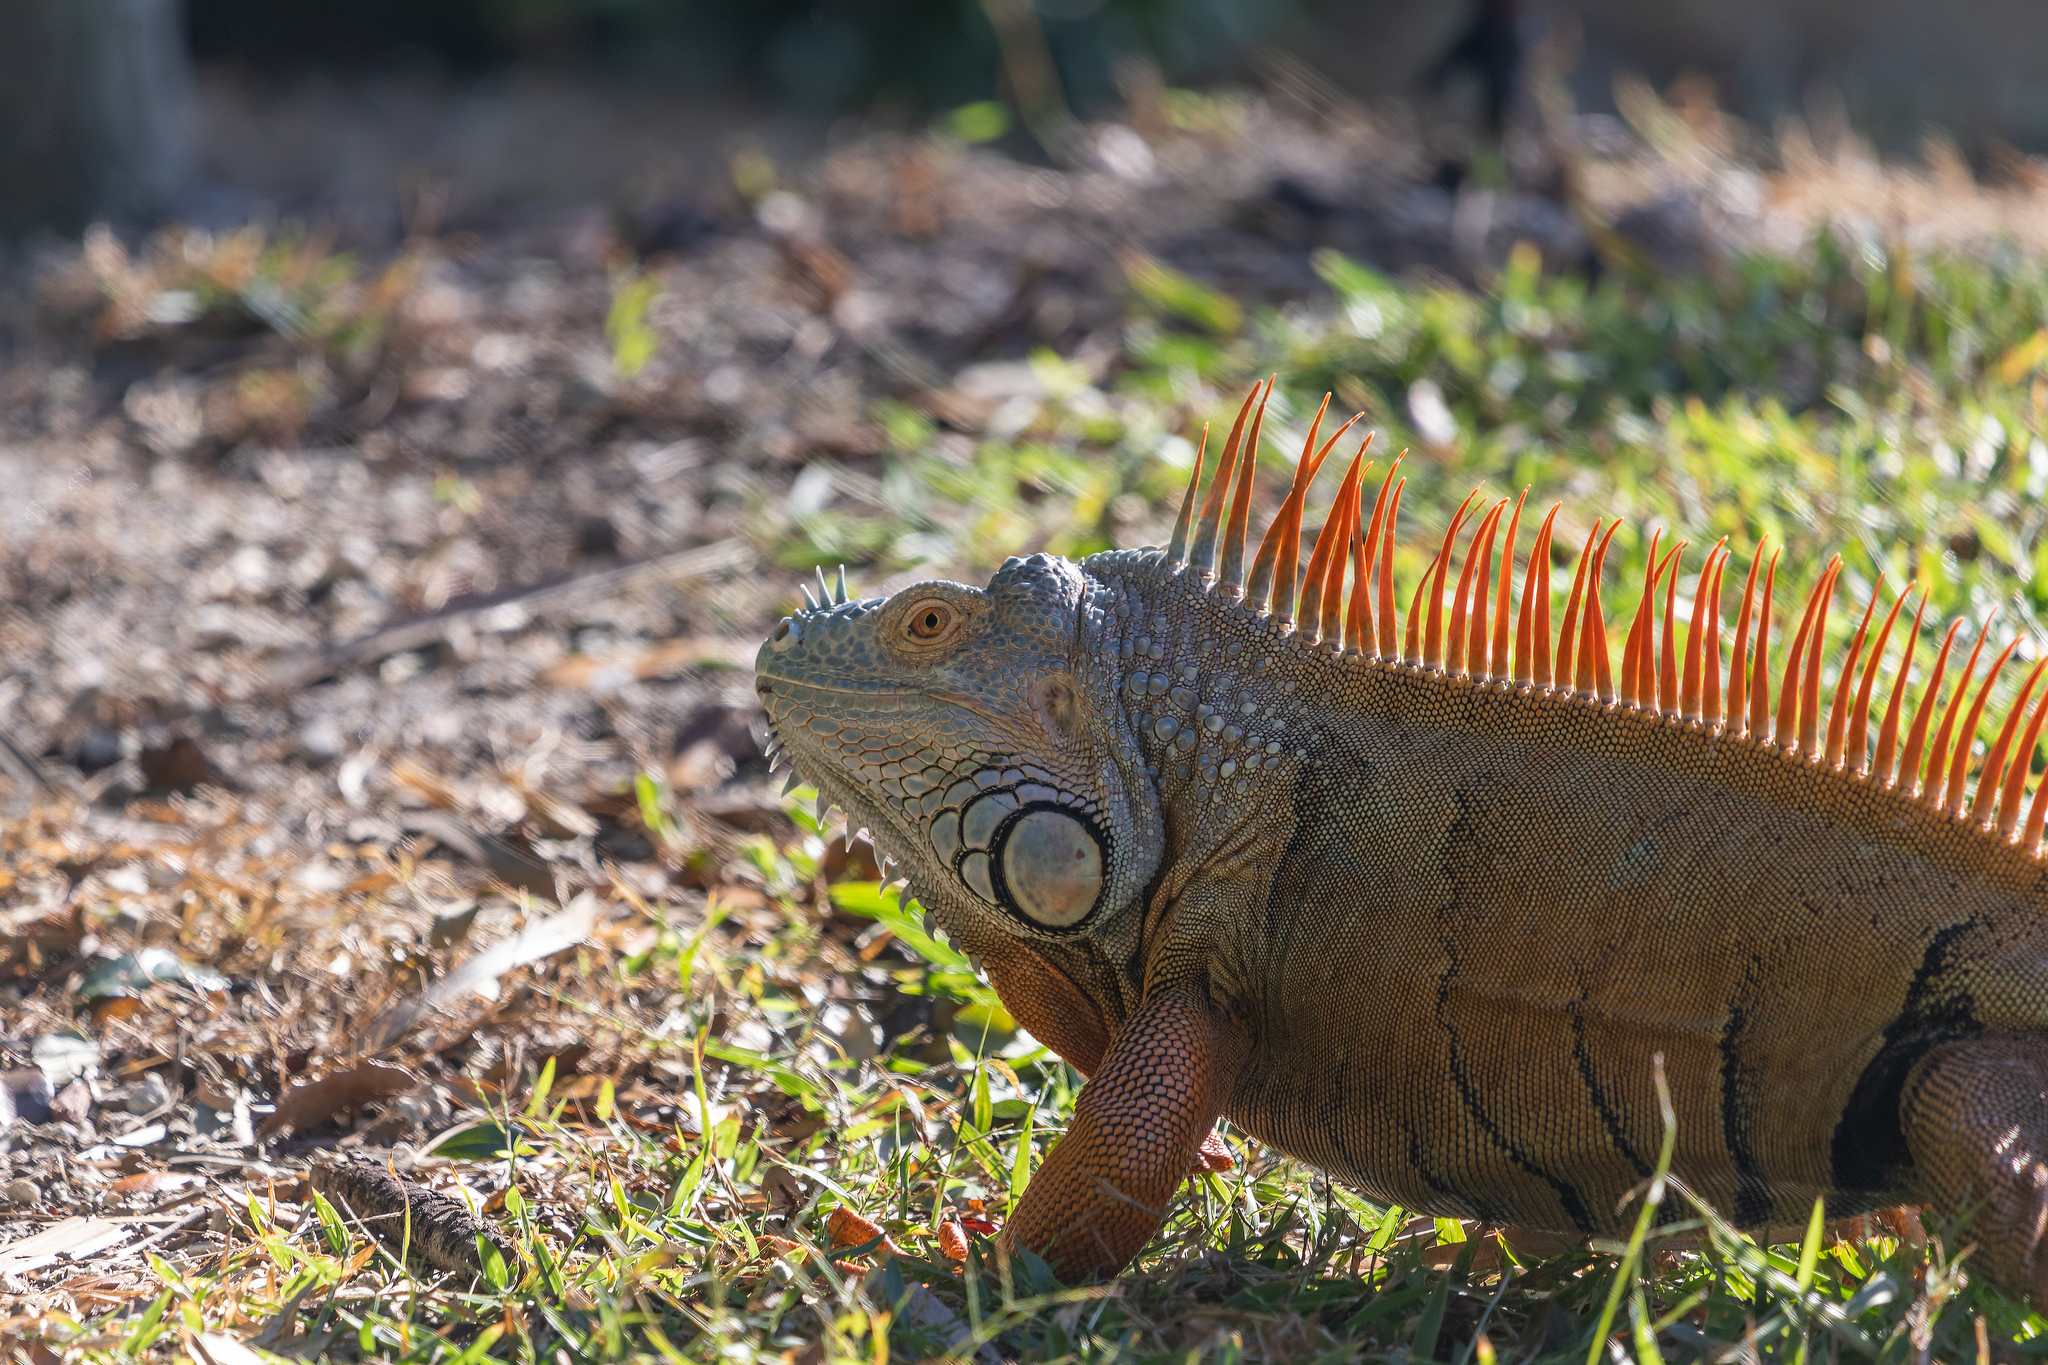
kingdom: Animalia
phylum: Chordata
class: Squamata
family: Iguanidae
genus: Iguana
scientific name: Iguana iguana
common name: Green iguana
